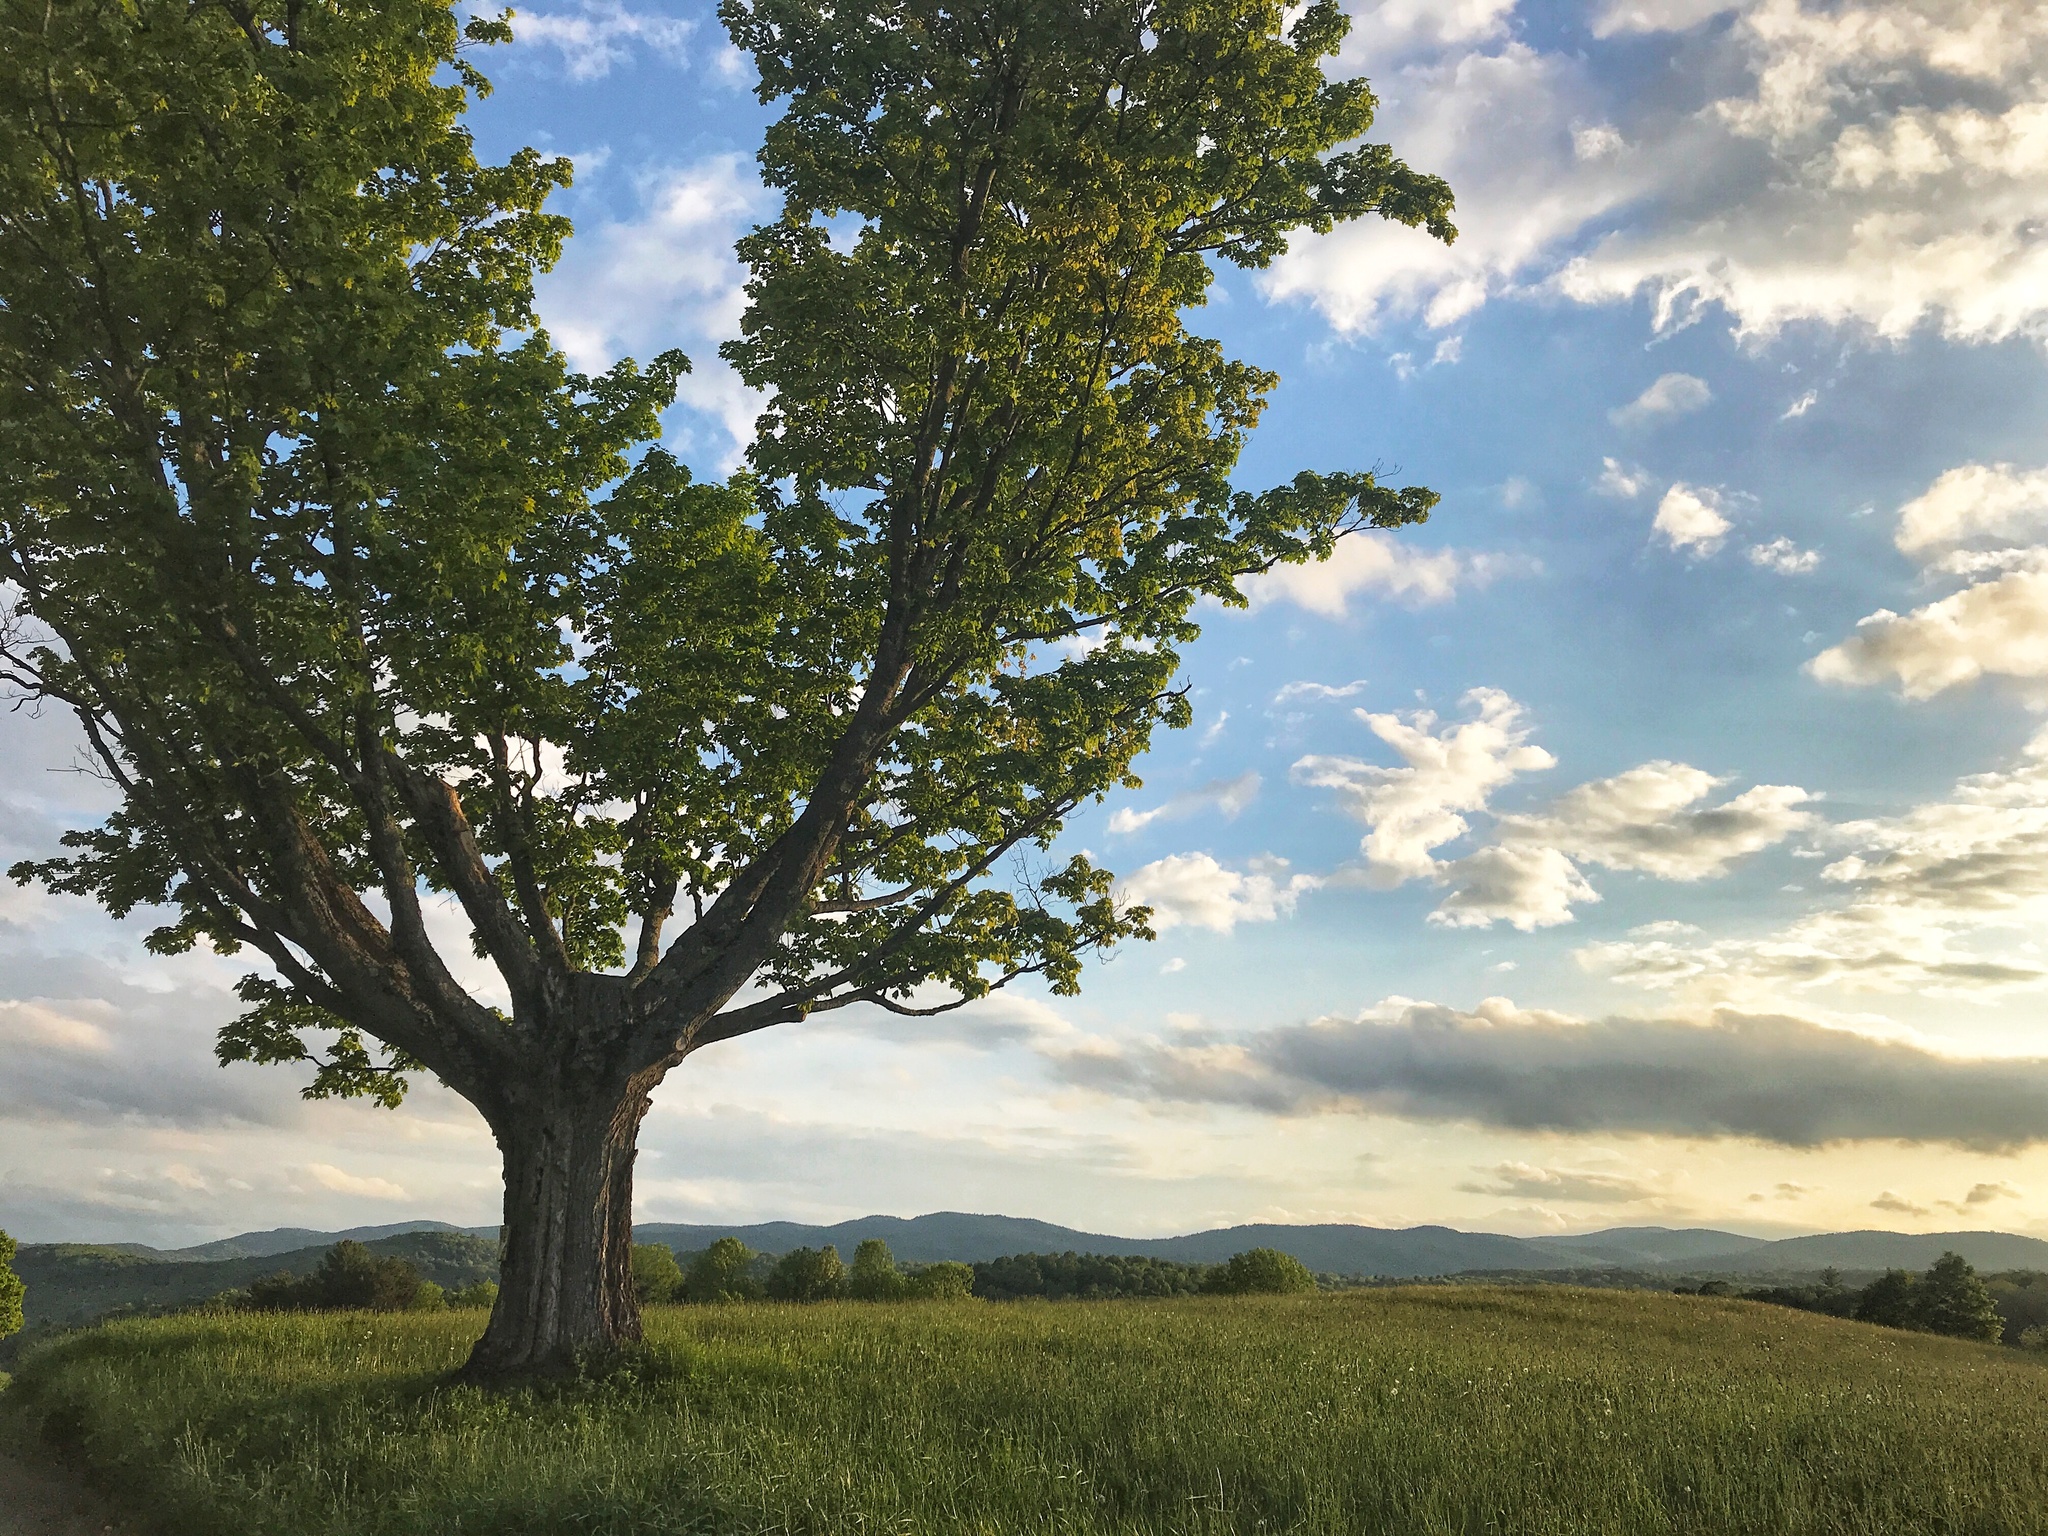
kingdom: Plantae
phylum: Tracheophyta
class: Magnoliopsida
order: Sapindales
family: Sapindaceae
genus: Acer
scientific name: Acer saccharum
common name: Sugar maple
